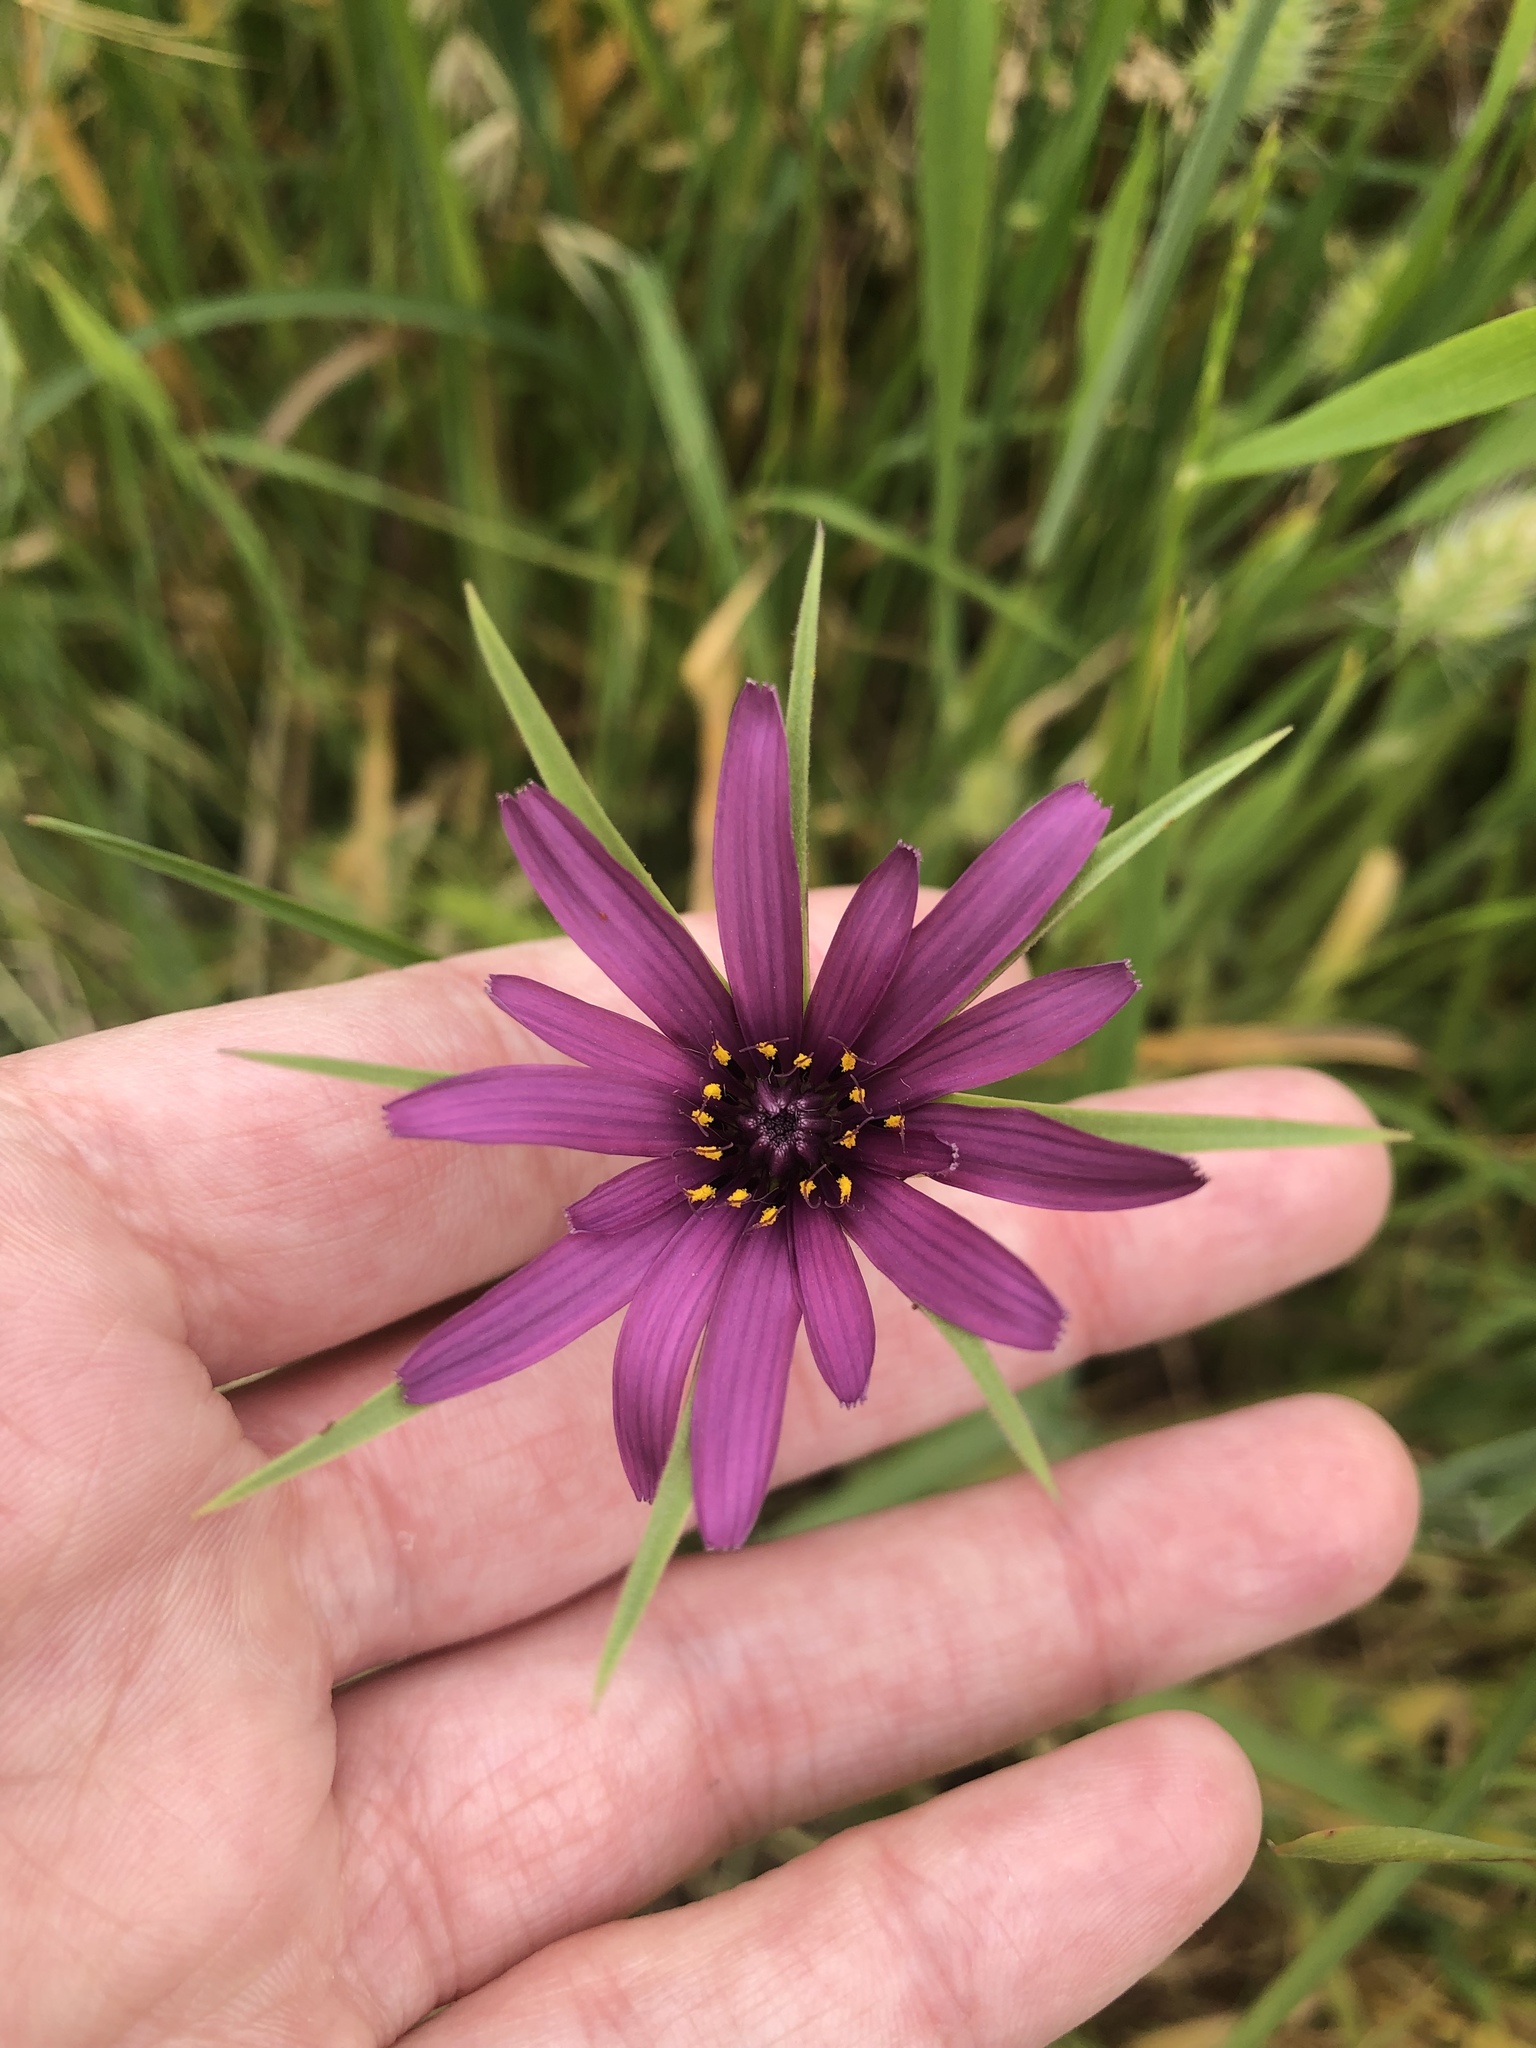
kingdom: Plantae
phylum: Tracheophyta
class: Magnoliopsida
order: Asterales
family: Asteraceae
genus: Tragopogon
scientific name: Tragopogon porrifolius
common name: Salsify
